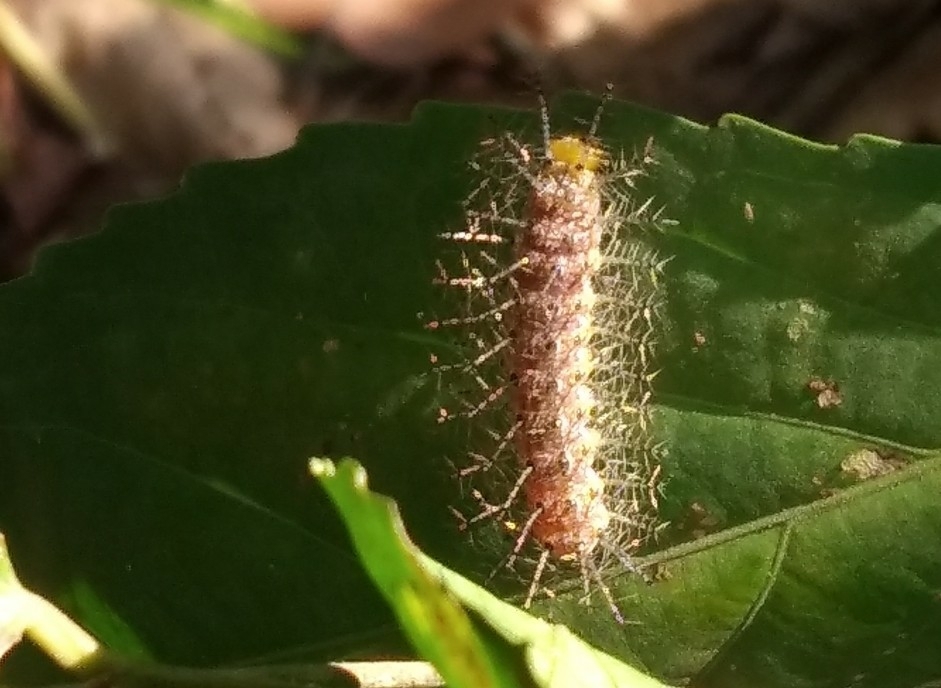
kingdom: Animalia
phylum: Arthropoda
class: Insecta
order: Lepidoptera
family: Nymphalidae
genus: Cupha
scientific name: Cupha erymanthis
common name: Rustic
